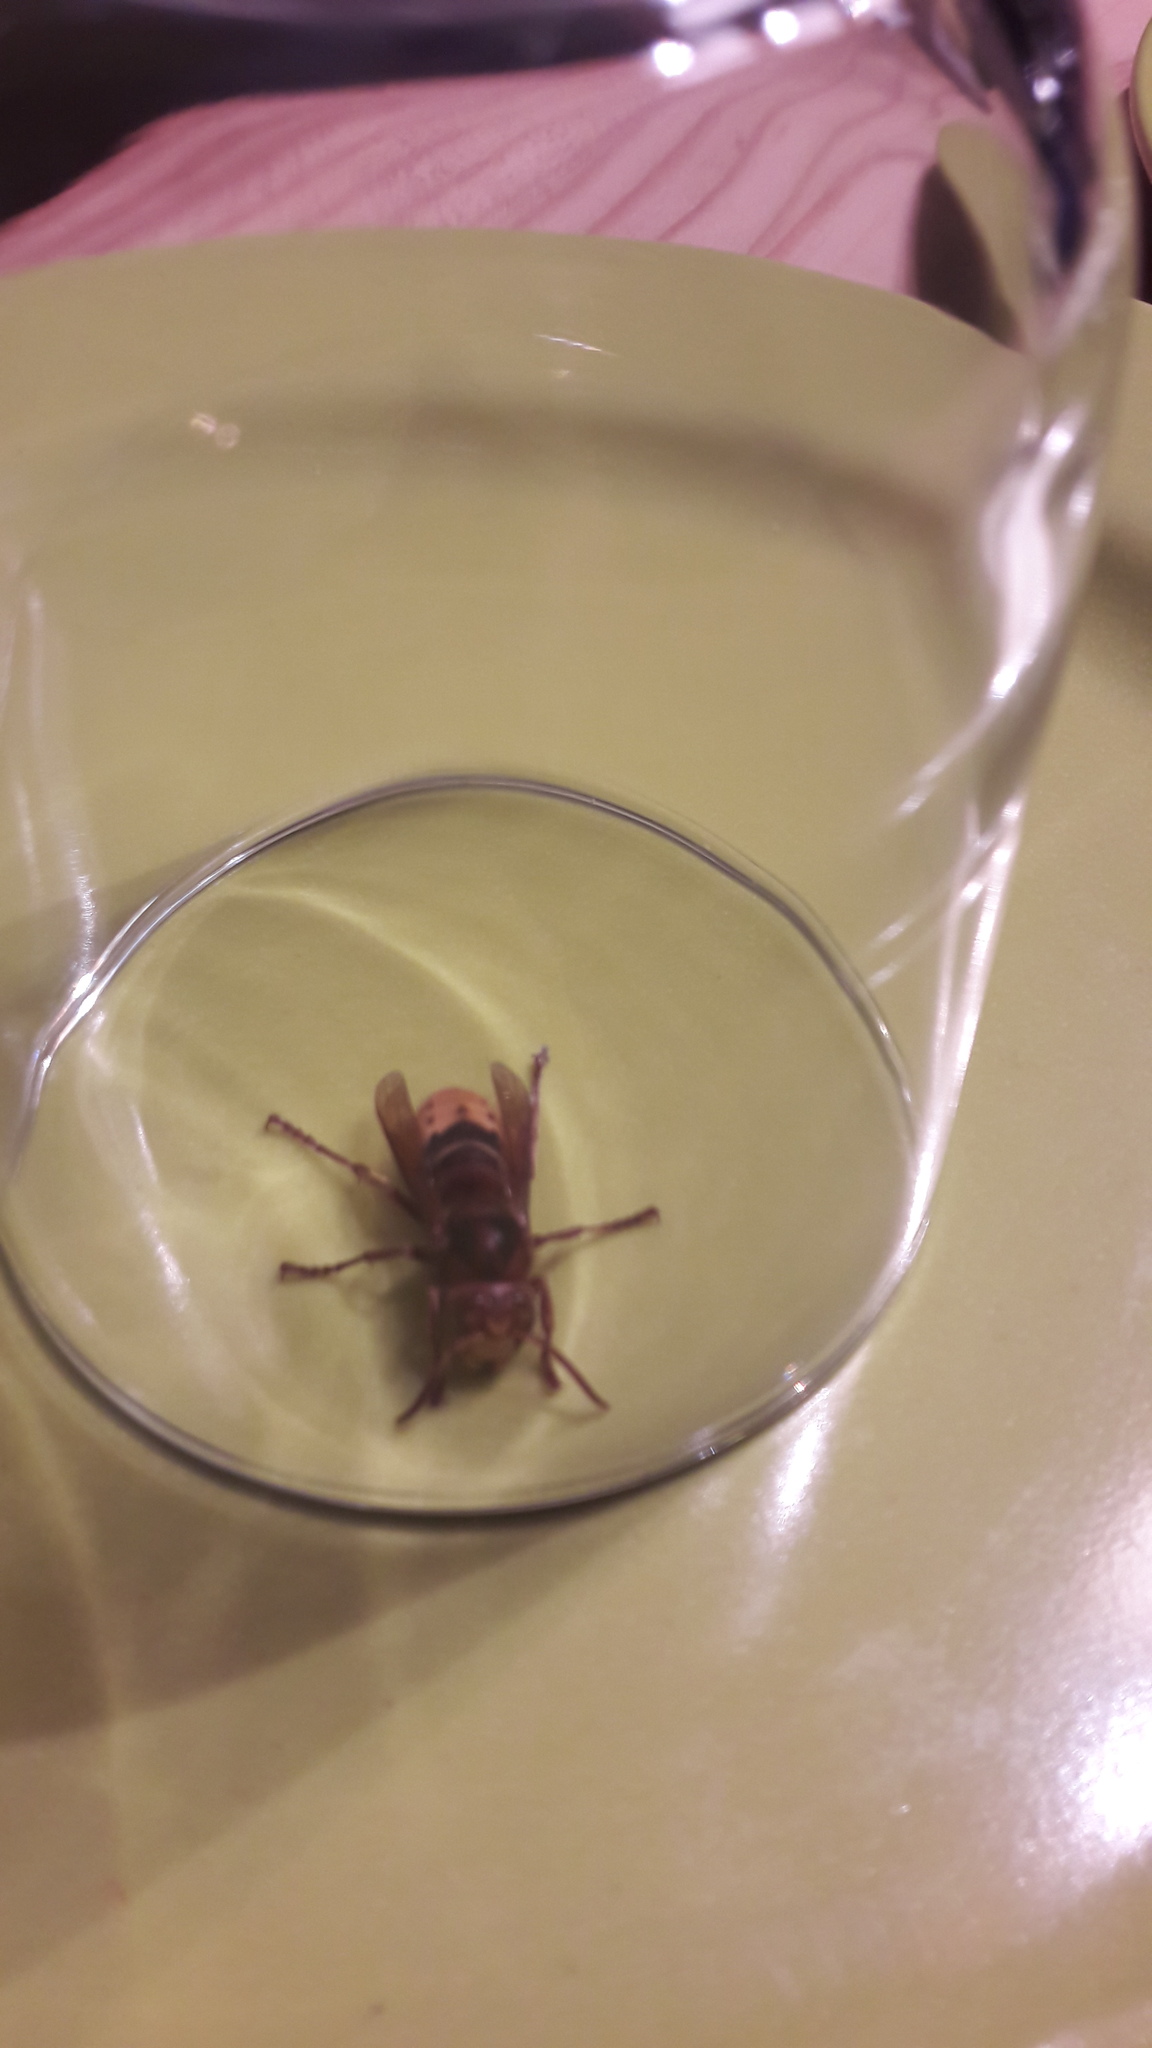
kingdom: Animalia
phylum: Arthropoda
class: Insecta
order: Hymenoptera
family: Vespidae
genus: Vespa
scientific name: Vespa crabro
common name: Hornet
